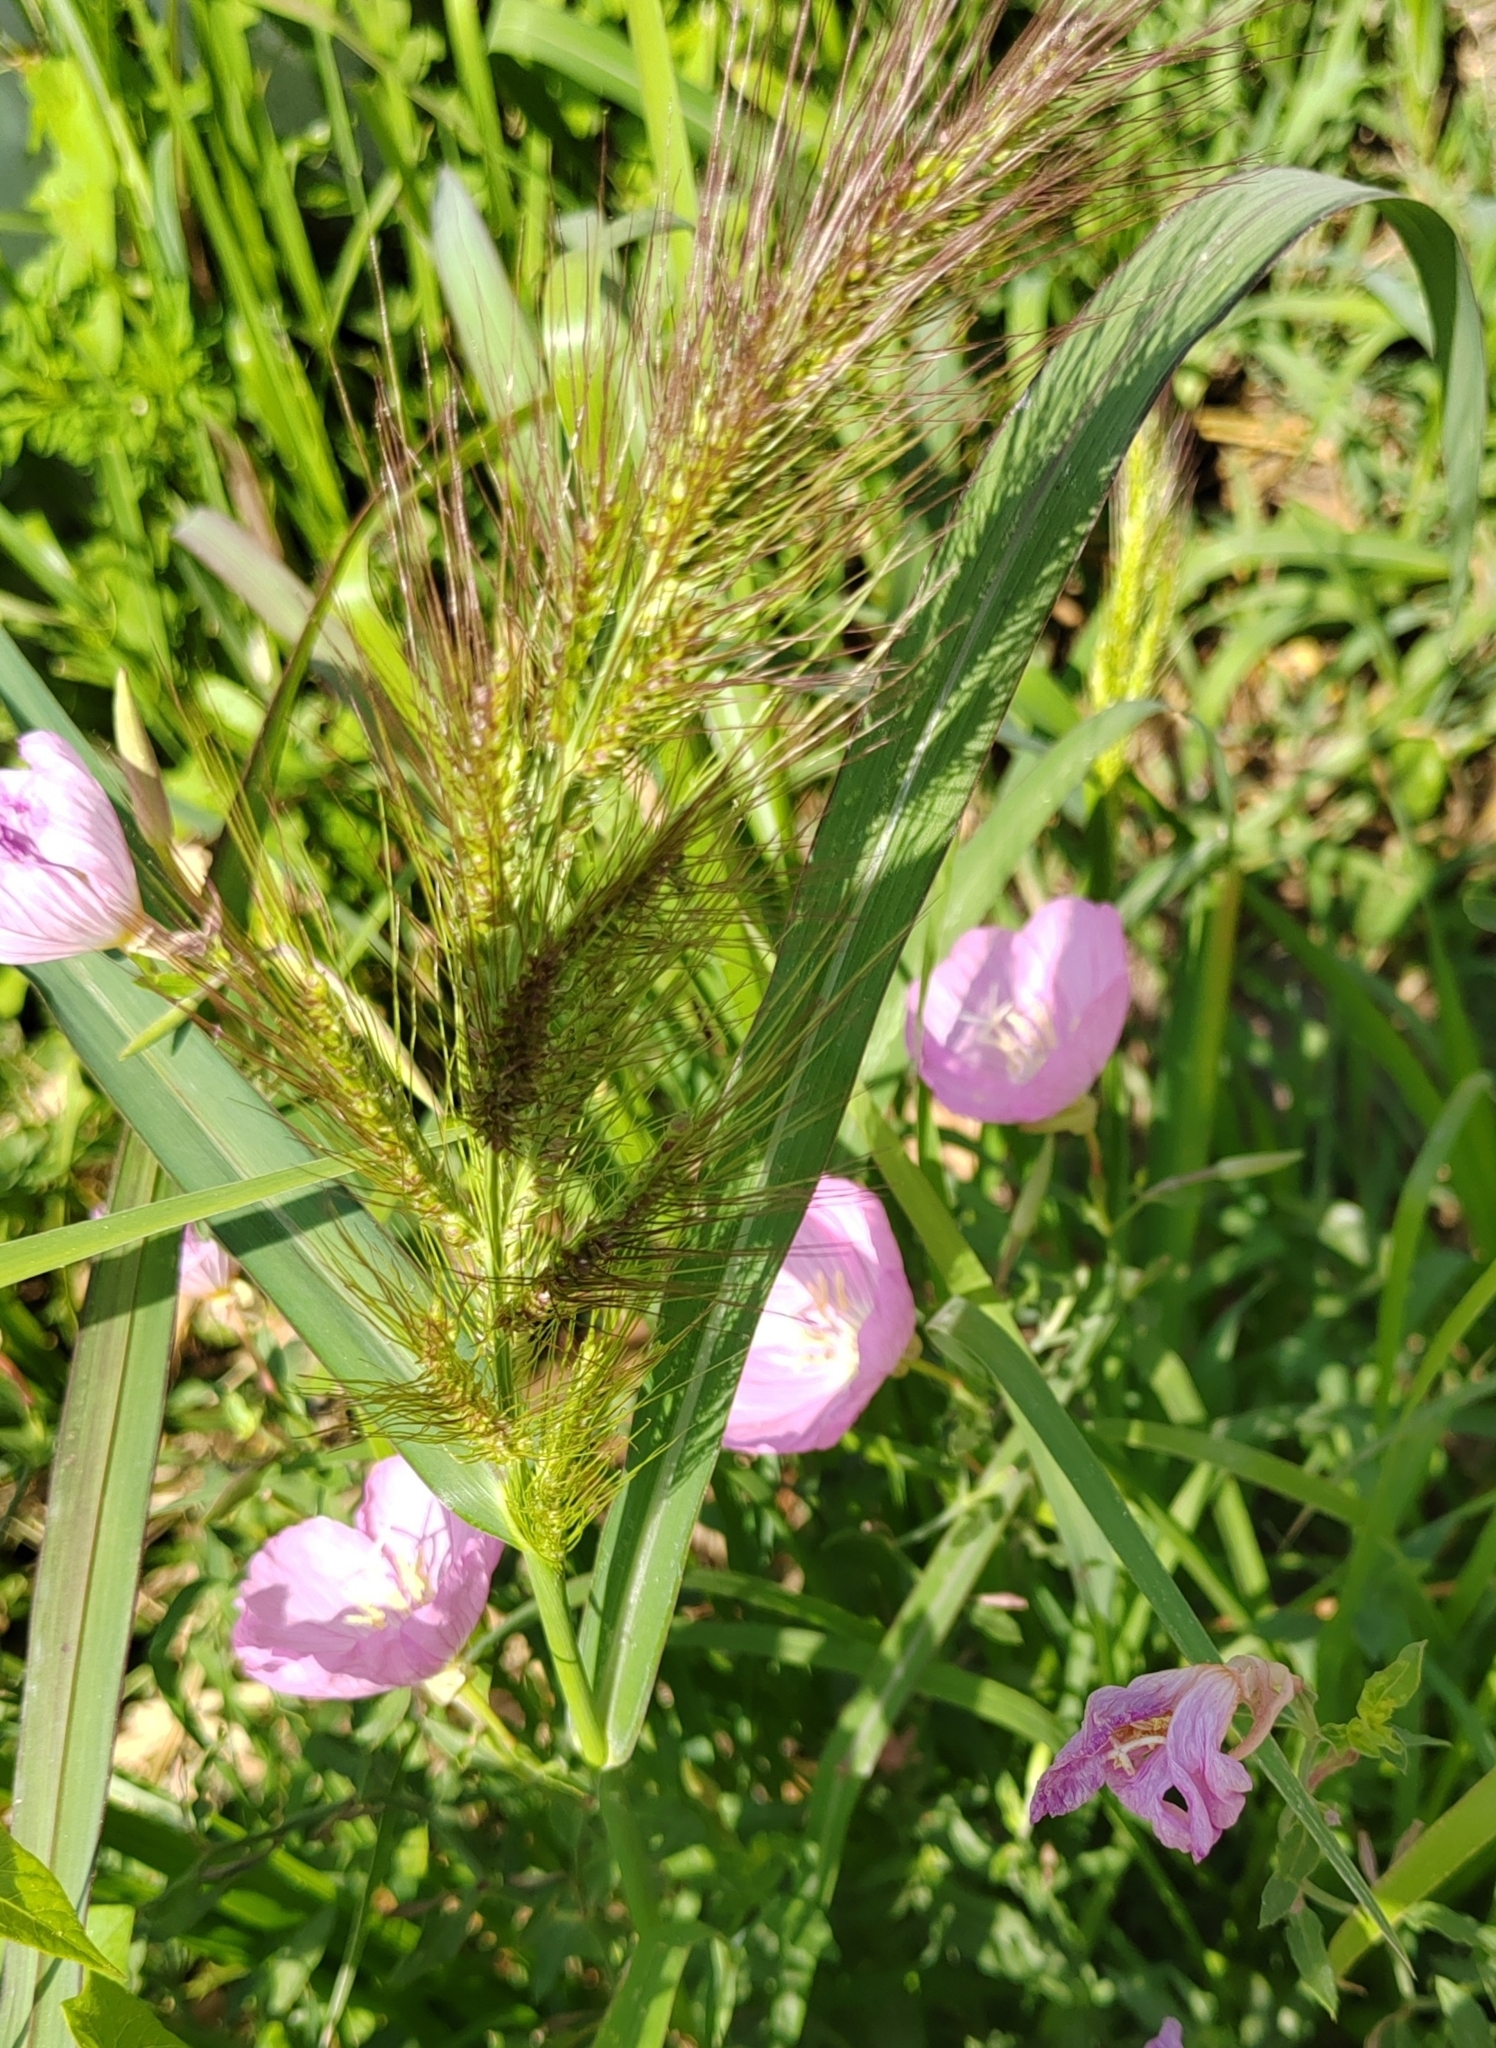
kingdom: Plantae
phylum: Tracheophyta
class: Liliopsida
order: Poales
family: Poaceae
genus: Echinochloa
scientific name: Echinochloa crus-galli
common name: Cockspur
